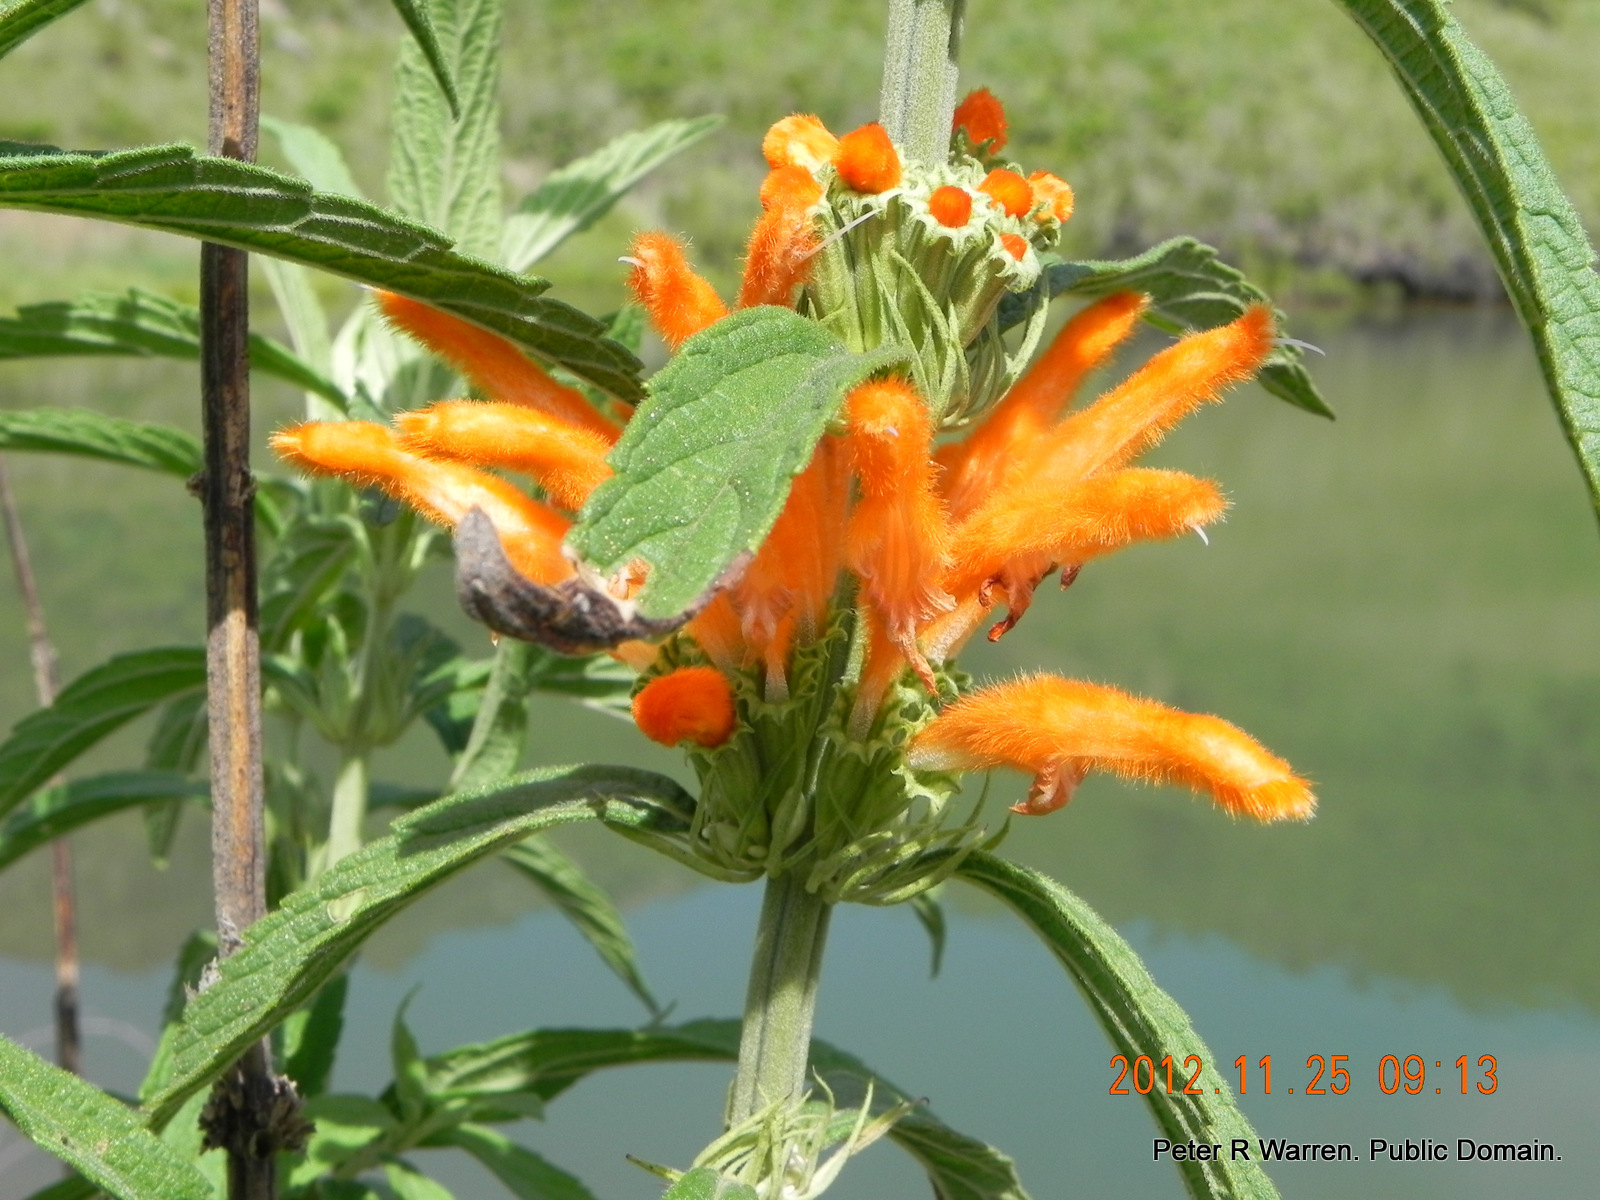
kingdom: Plantae
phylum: Tracheophyta
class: Magnoliopsida
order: Lamiales
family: Lamiaceae
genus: Leonotis
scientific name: Leonotis leonurus
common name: Lion's ear
